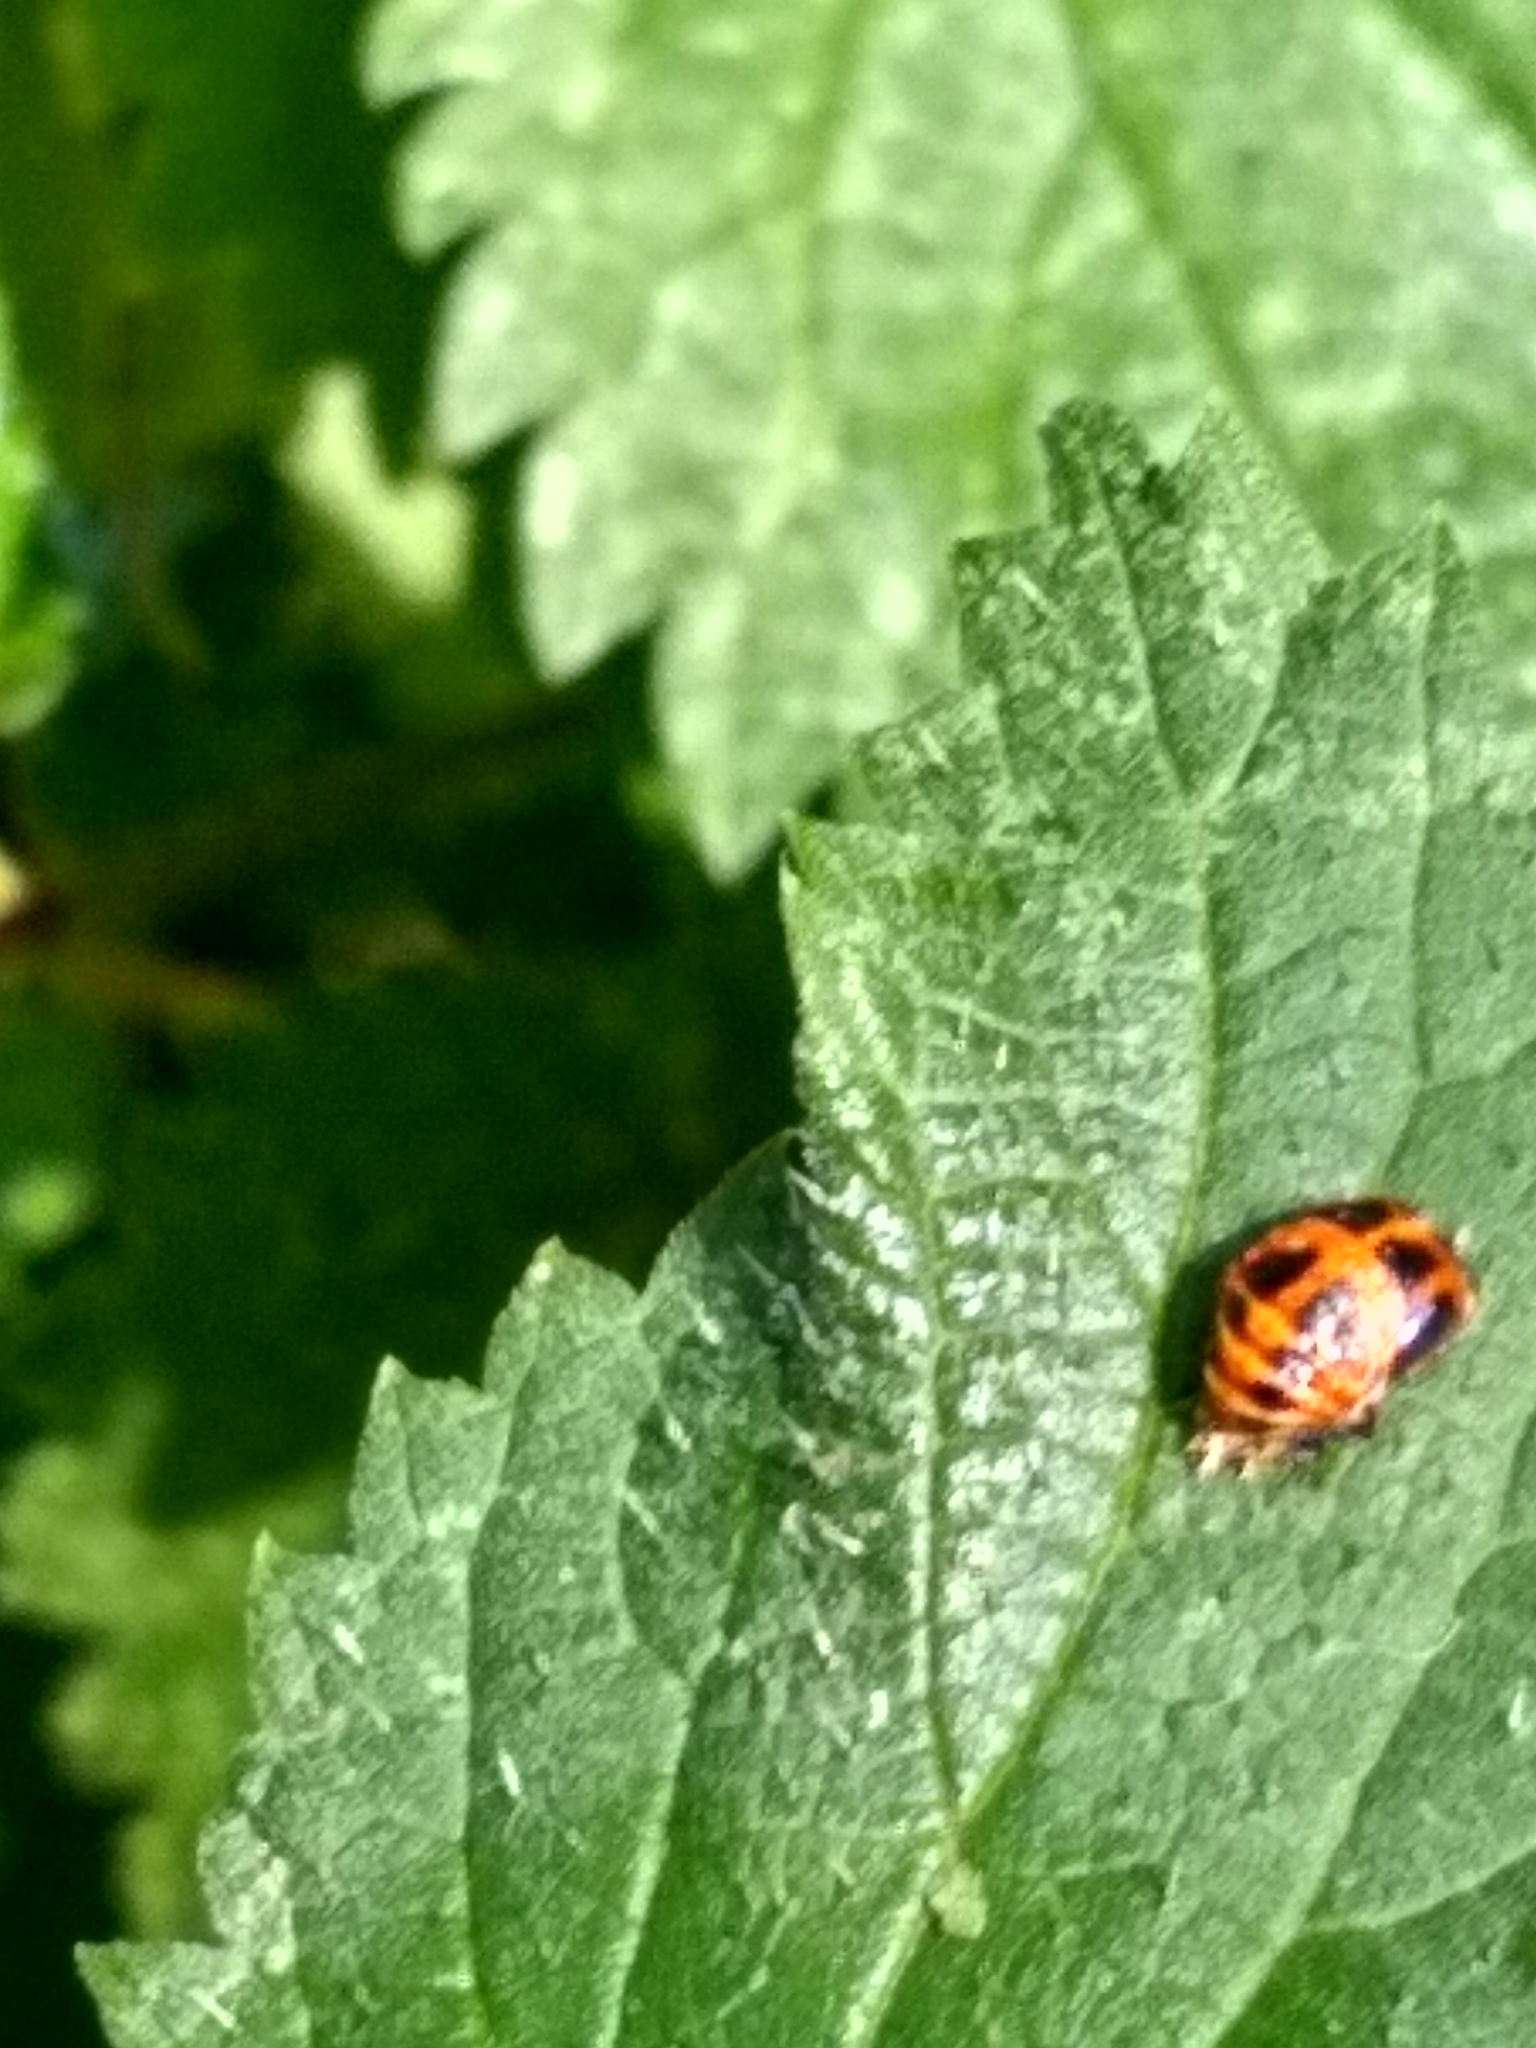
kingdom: Animalia
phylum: Arthropoda
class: Insecta
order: Coleoptera
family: Coccinellidae
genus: Harmonia
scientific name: Harmonia axyridis
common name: Harlequin ladybird
